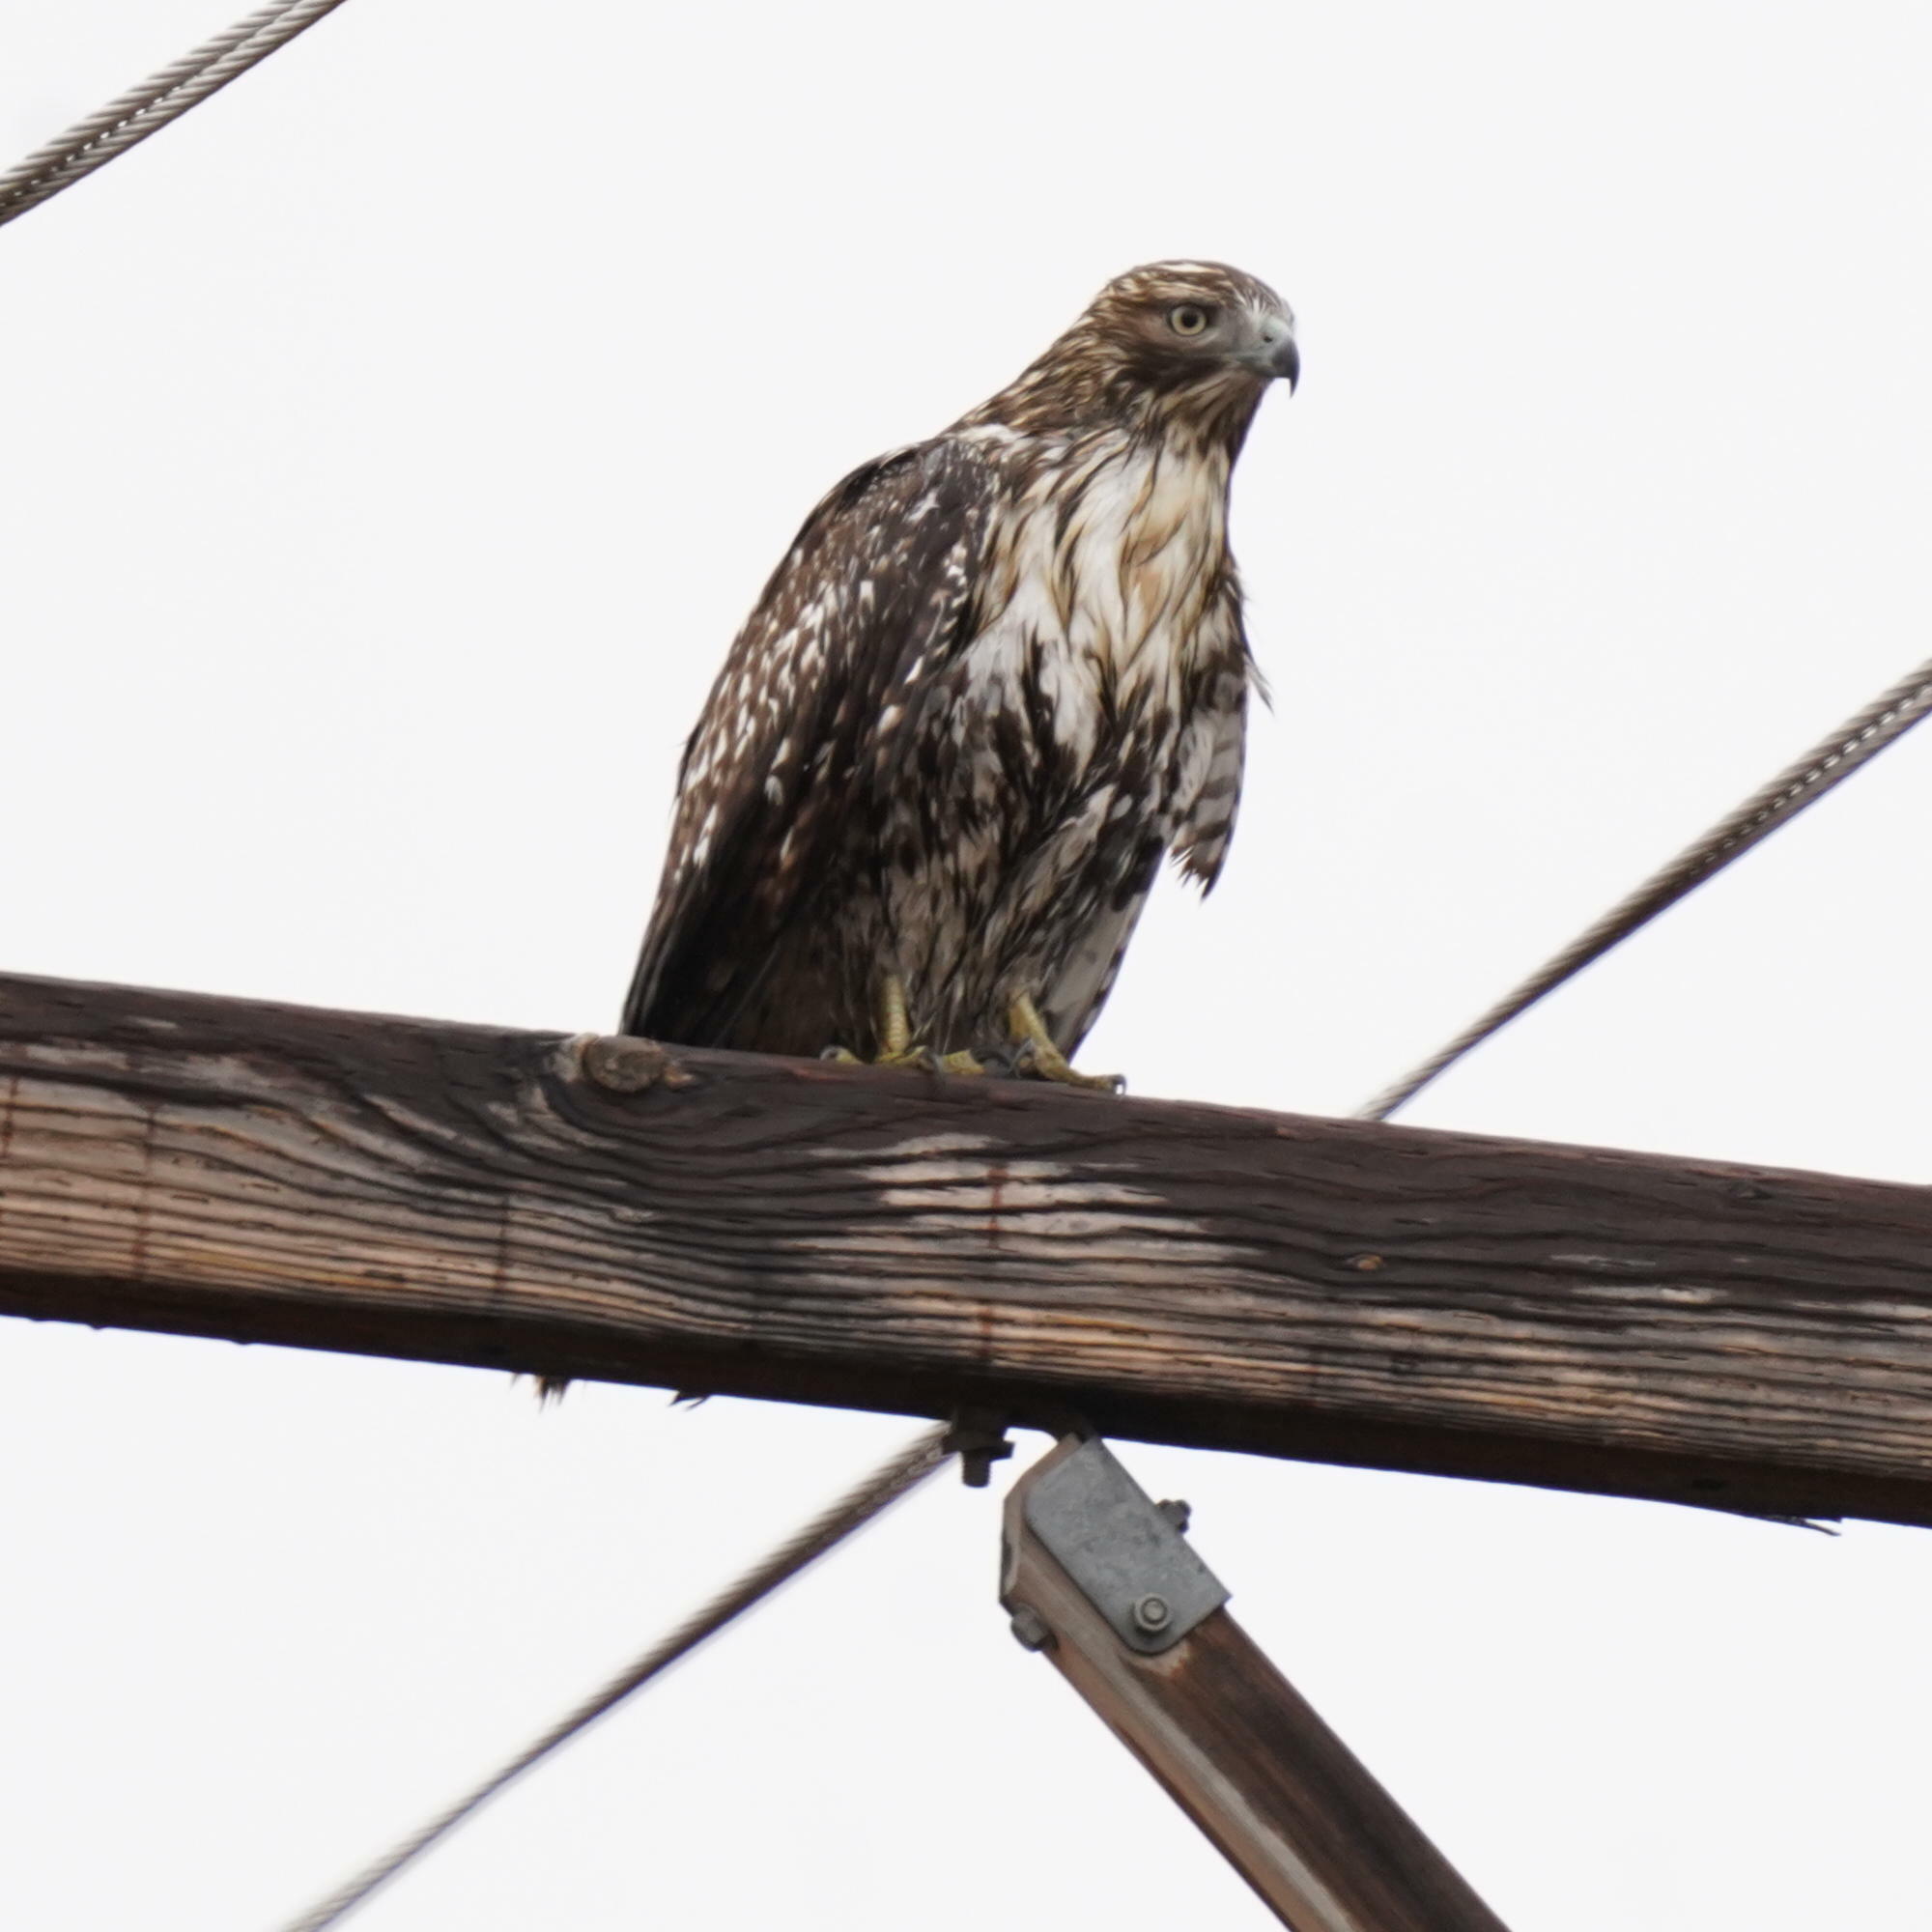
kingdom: Animalia
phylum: Chordata
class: Aves
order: Accipitriformes
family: Accipitridae
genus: Buteo
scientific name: Buteo jamaicensis
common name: Red-tailed hawk
